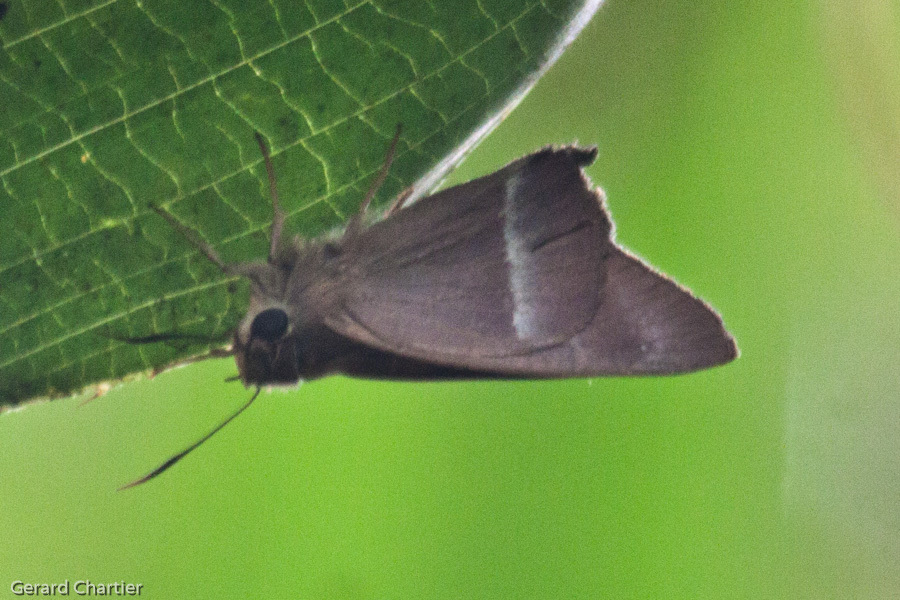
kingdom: Animalia
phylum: Arthropoda
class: Insecta
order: Lepidoptera
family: Hesperiidae
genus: Hasora
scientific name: Hasora chromus
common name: Common banded awl
